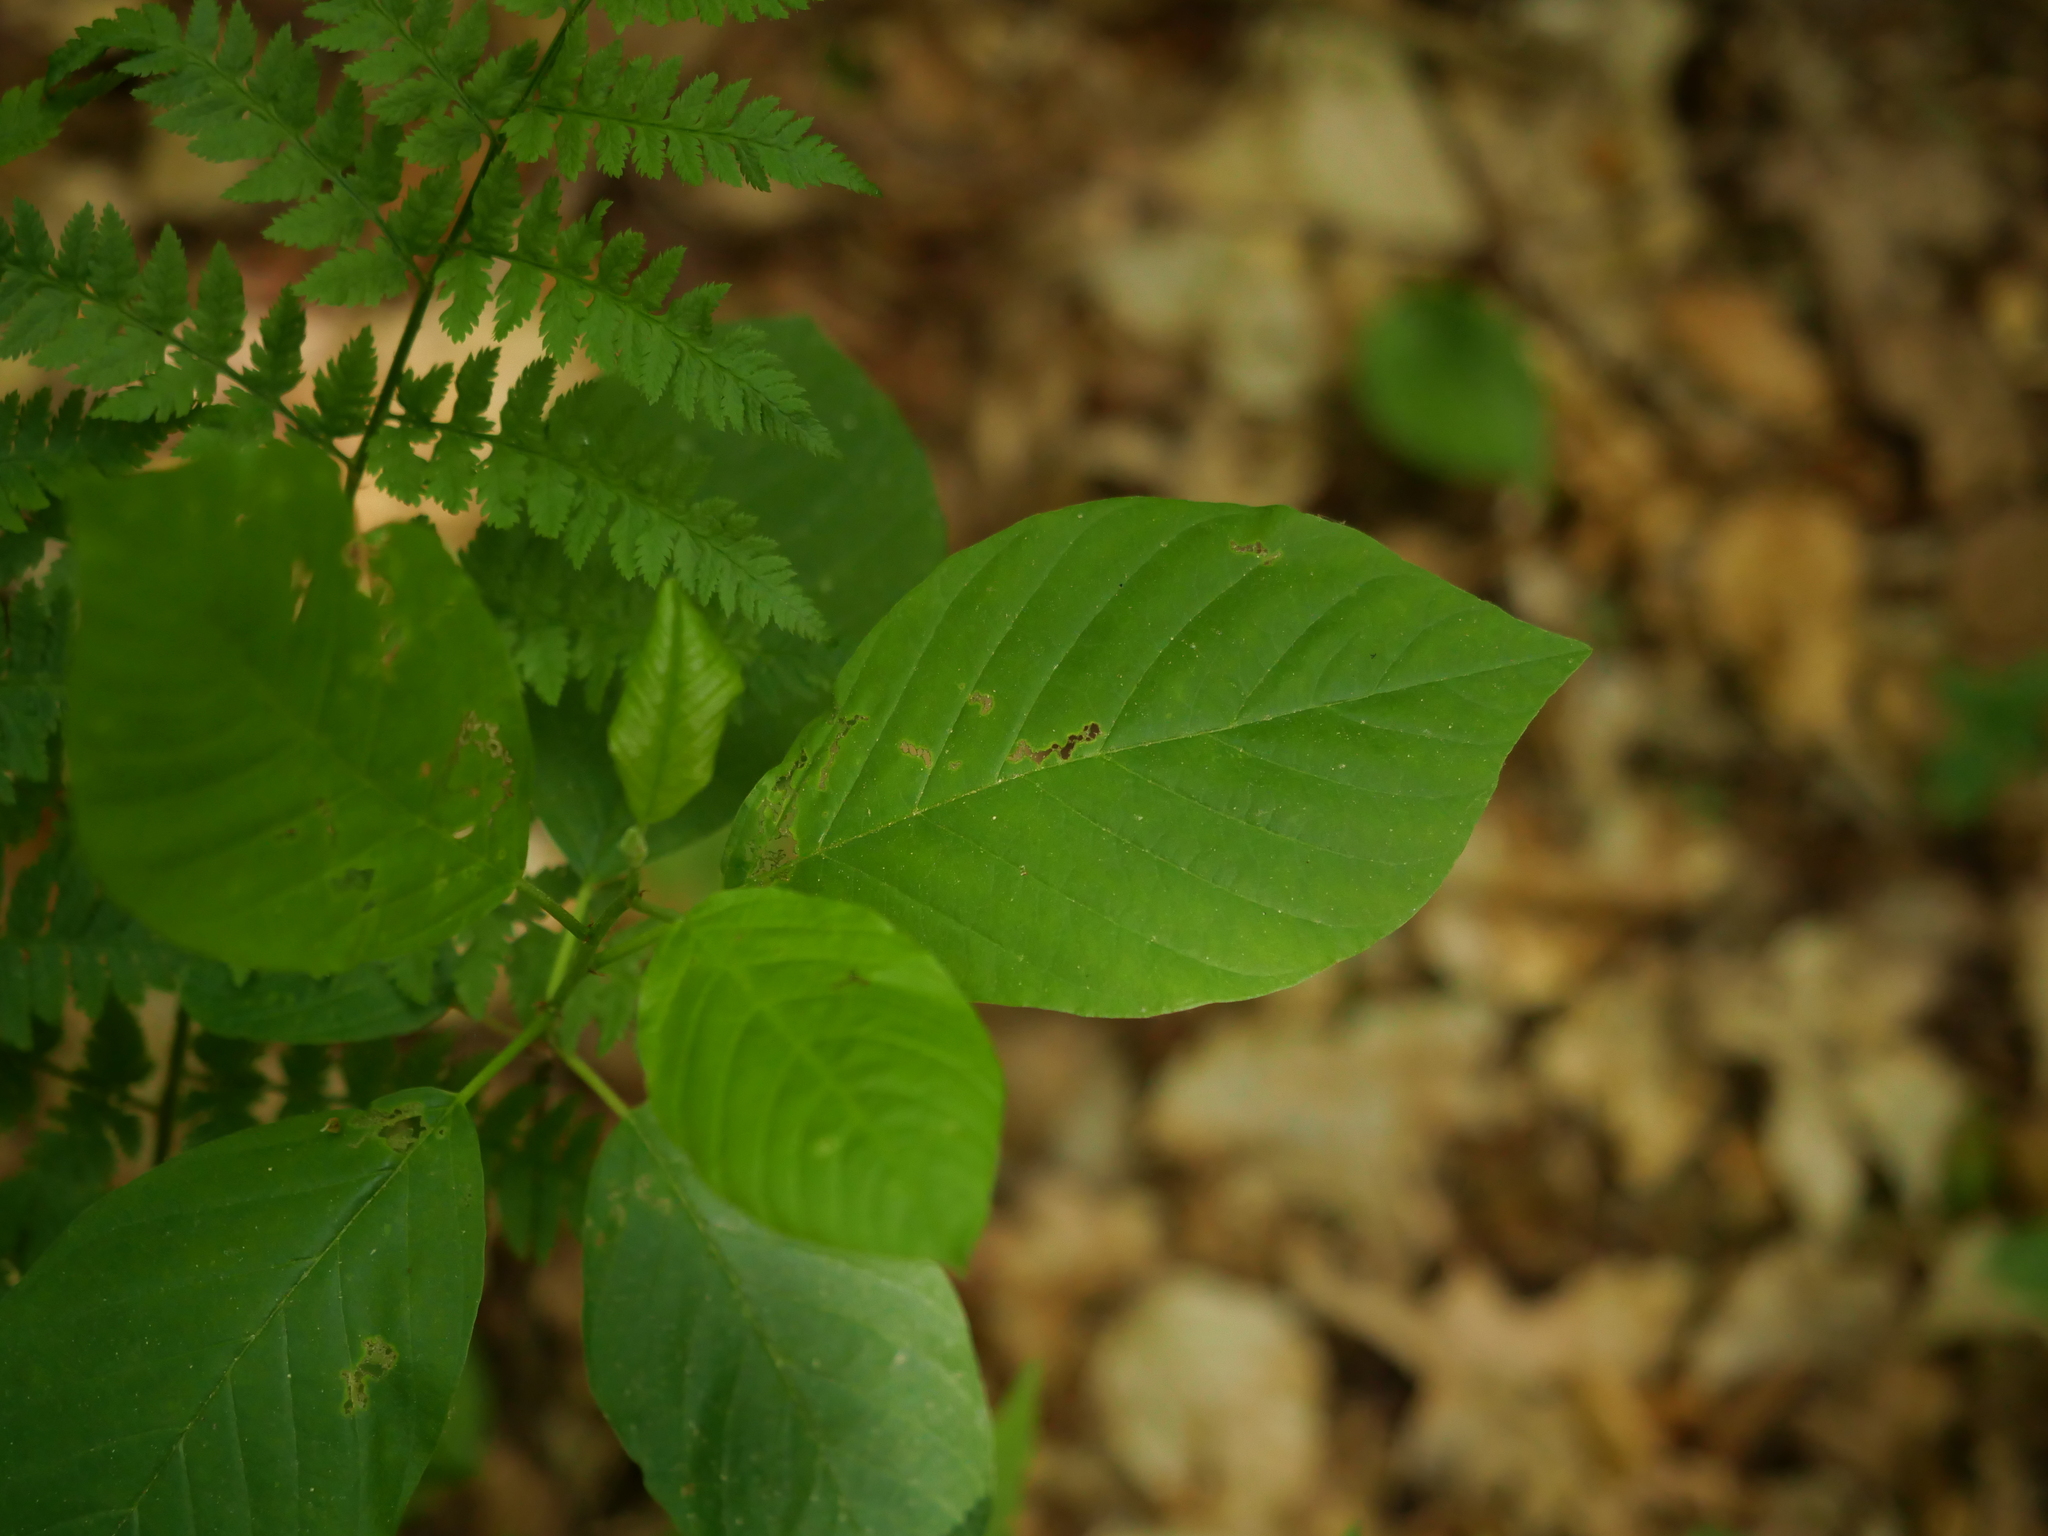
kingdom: Plantae
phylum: Tracheophyta
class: Magnoliopsida
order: Rosales
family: Rhamnaceae
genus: Frangula
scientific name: Frangula alnus
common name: Alder buckthorn
